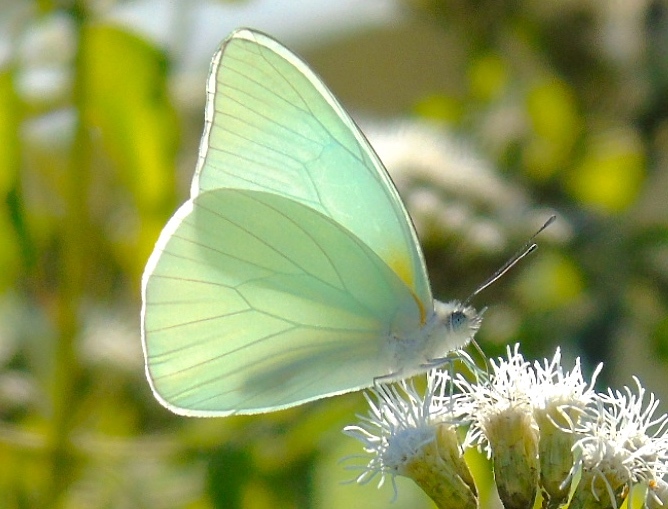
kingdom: Animalia
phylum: Arthropoda
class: Insecta
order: Lepidoptera
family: Pieridae
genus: Glutophrissa
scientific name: Glutophrissa drusilla
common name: Florida white
